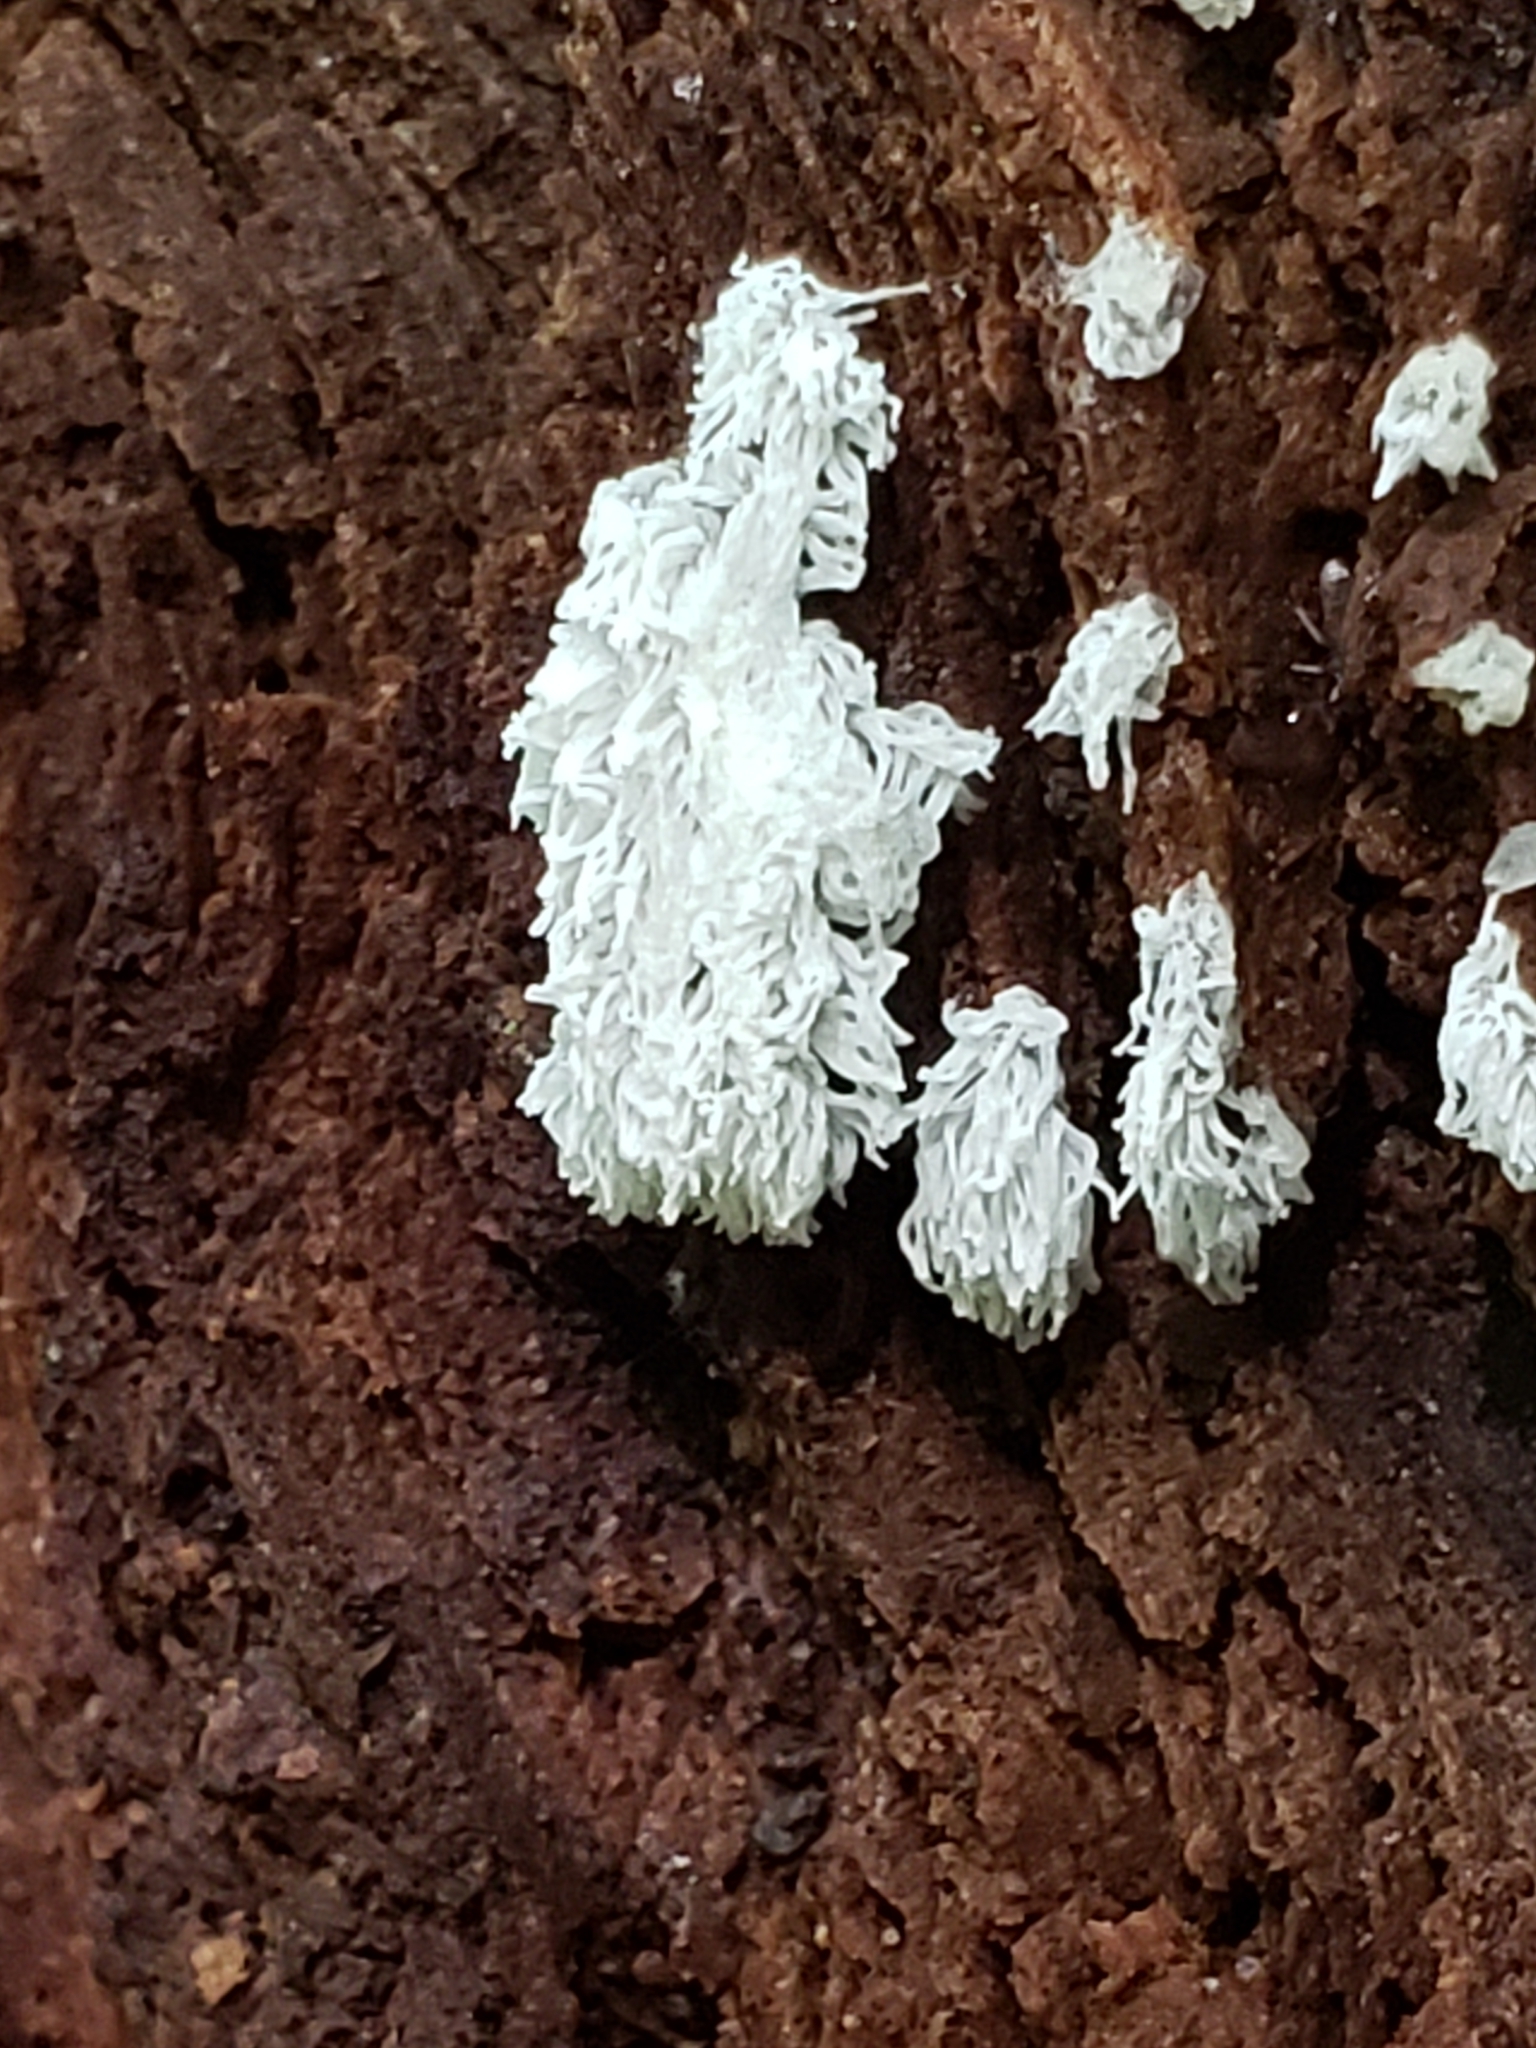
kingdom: Protozoa
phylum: Mycetozoa
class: Protosteliomycetes
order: Ceratiomyxales
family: Ceratiomyxaceae
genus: Ceratiomyxa
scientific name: Ceratiomyxa fruticulosa
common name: Honeycomb coral slime mold
